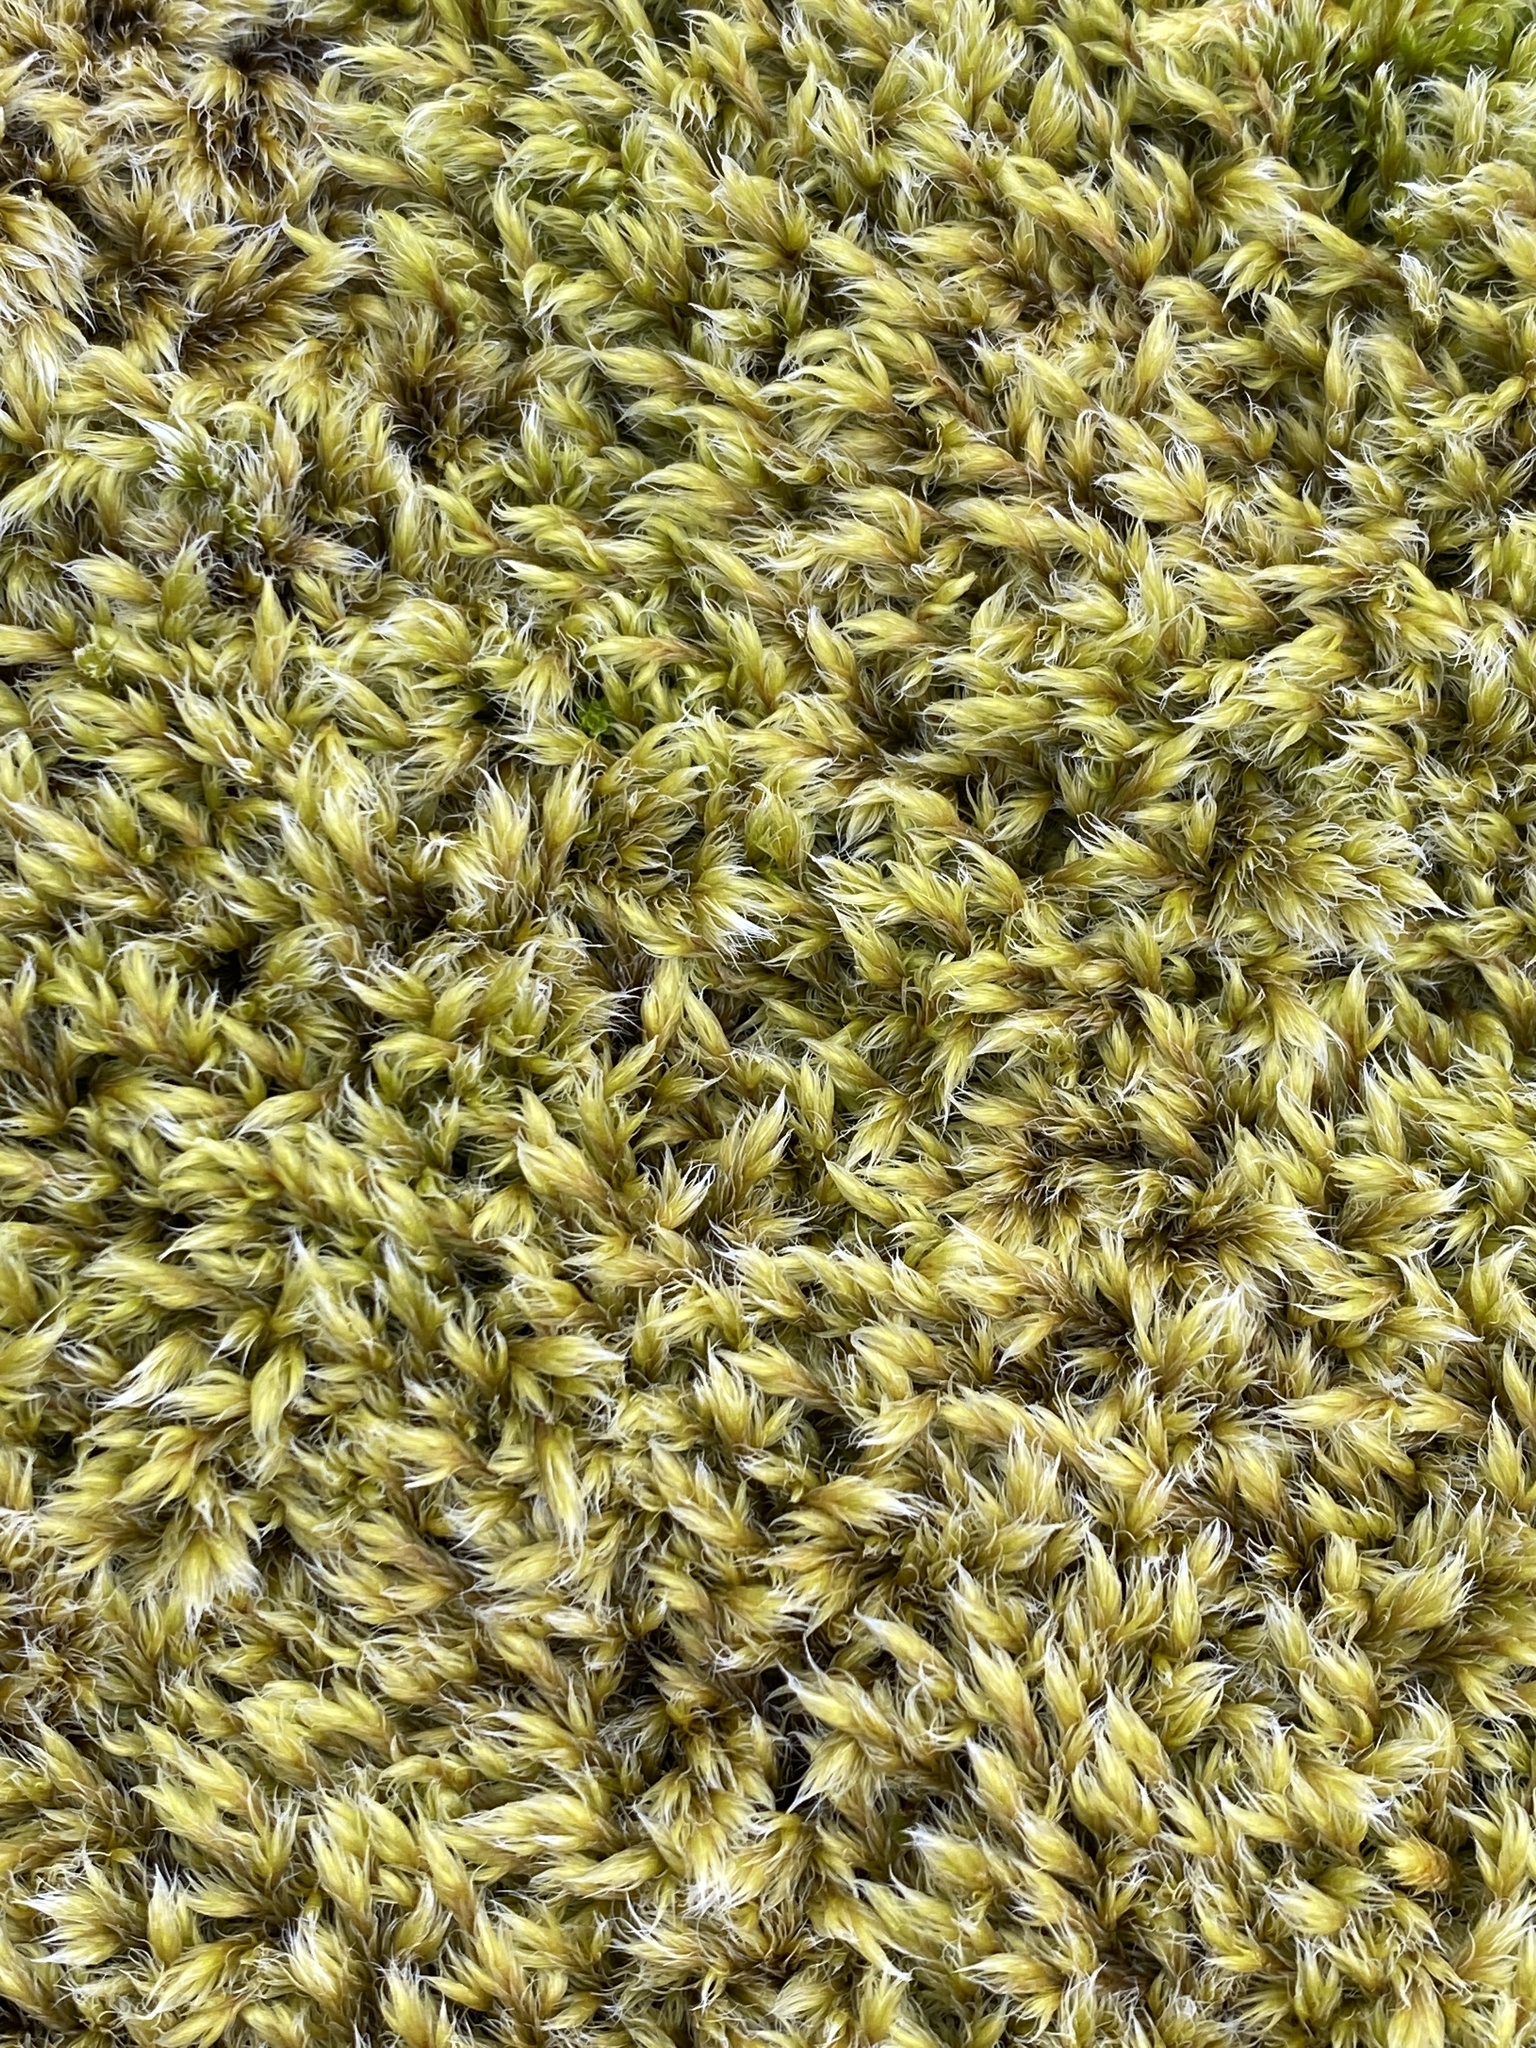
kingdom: Plantae
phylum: Bryophyta
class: Bryopsida
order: Grimmiales
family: Grimmiaceae
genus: Racomitrium
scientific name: Racomitrium lanuginosum
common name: Hoary rock moss
